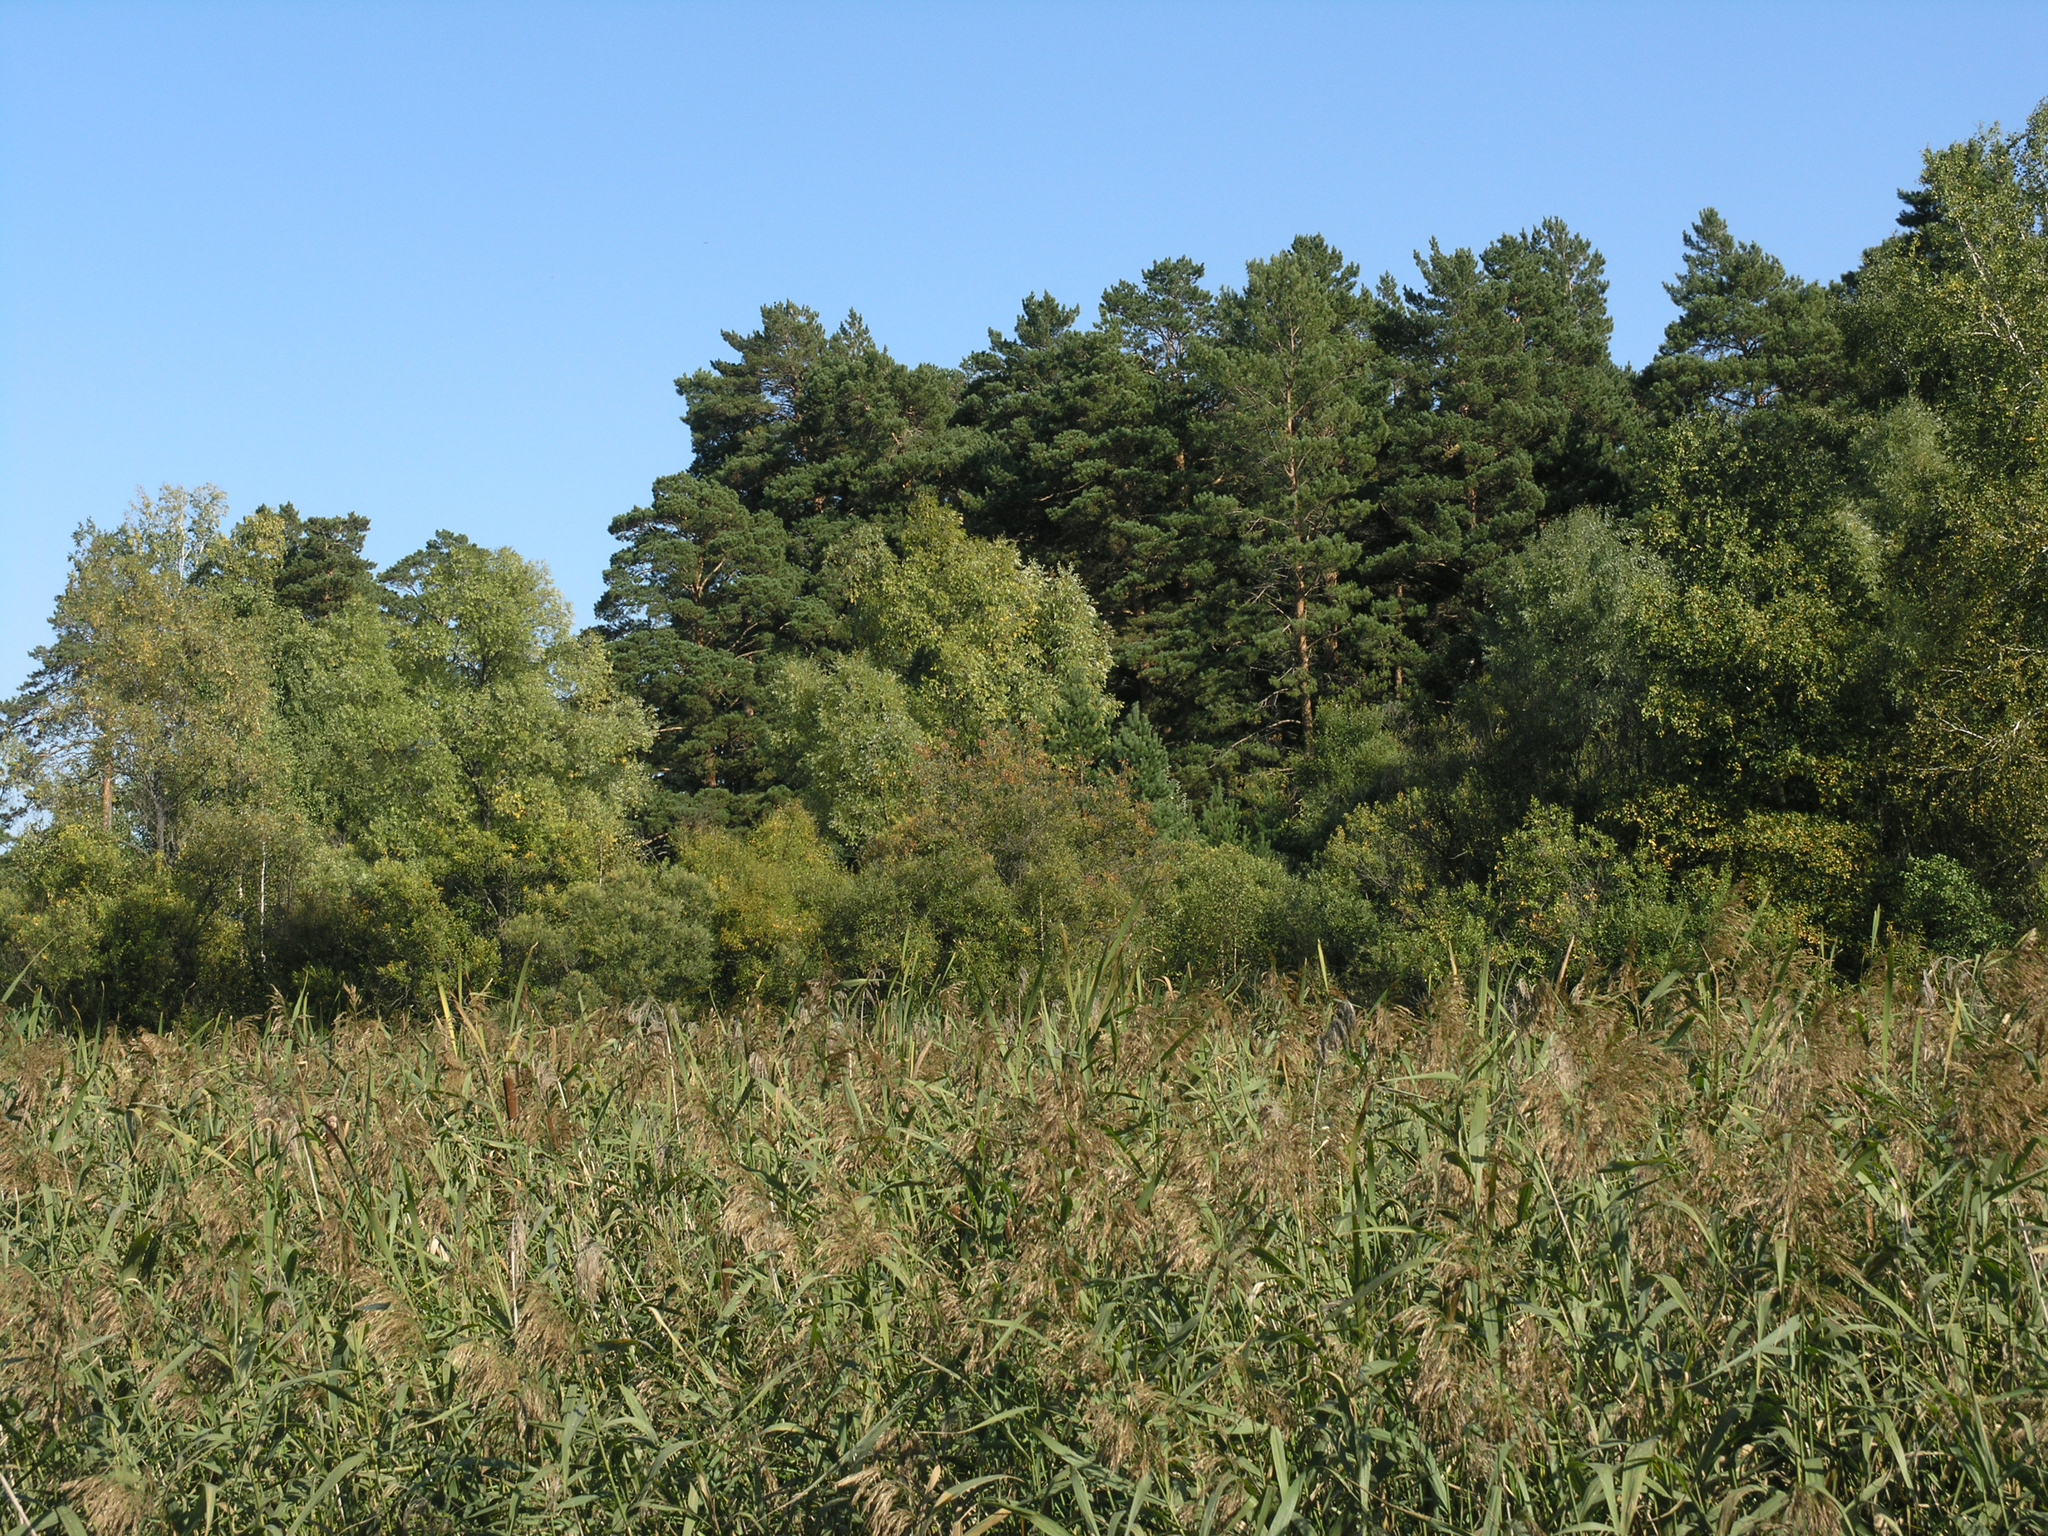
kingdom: Plantae
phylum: Tracheophyta
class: Pinopsida
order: Pinales
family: Pinaceae
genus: Pinus
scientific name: Pinus sylvestris
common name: Scots pine
